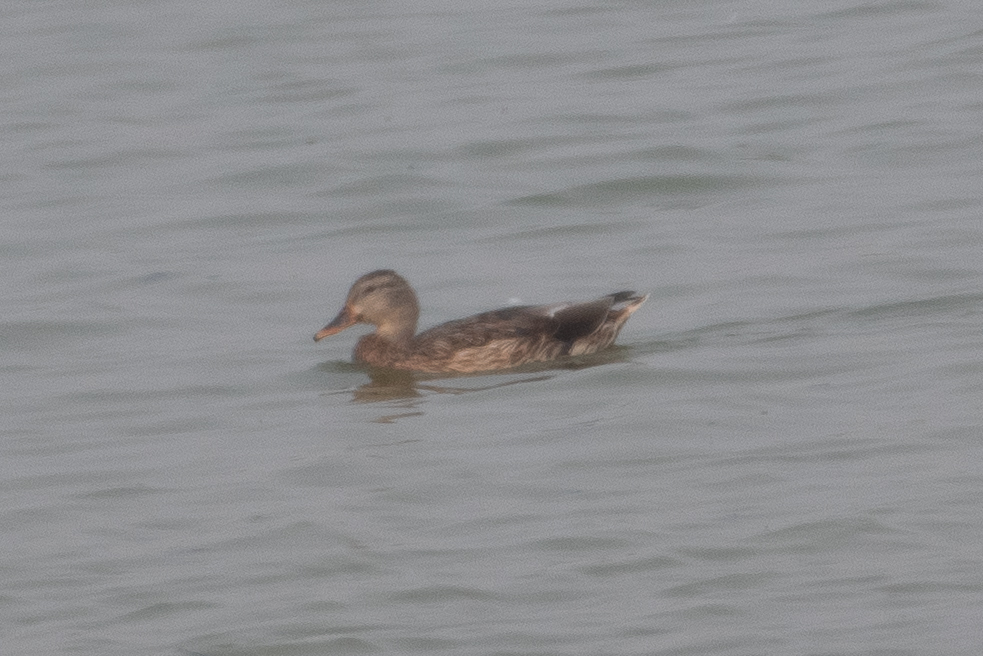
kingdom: Animalia
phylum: Chordata
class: Aves
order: Anseriformes
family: Anatidae
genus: Anas
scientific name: Anas platyrhynchos
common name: Mallard
